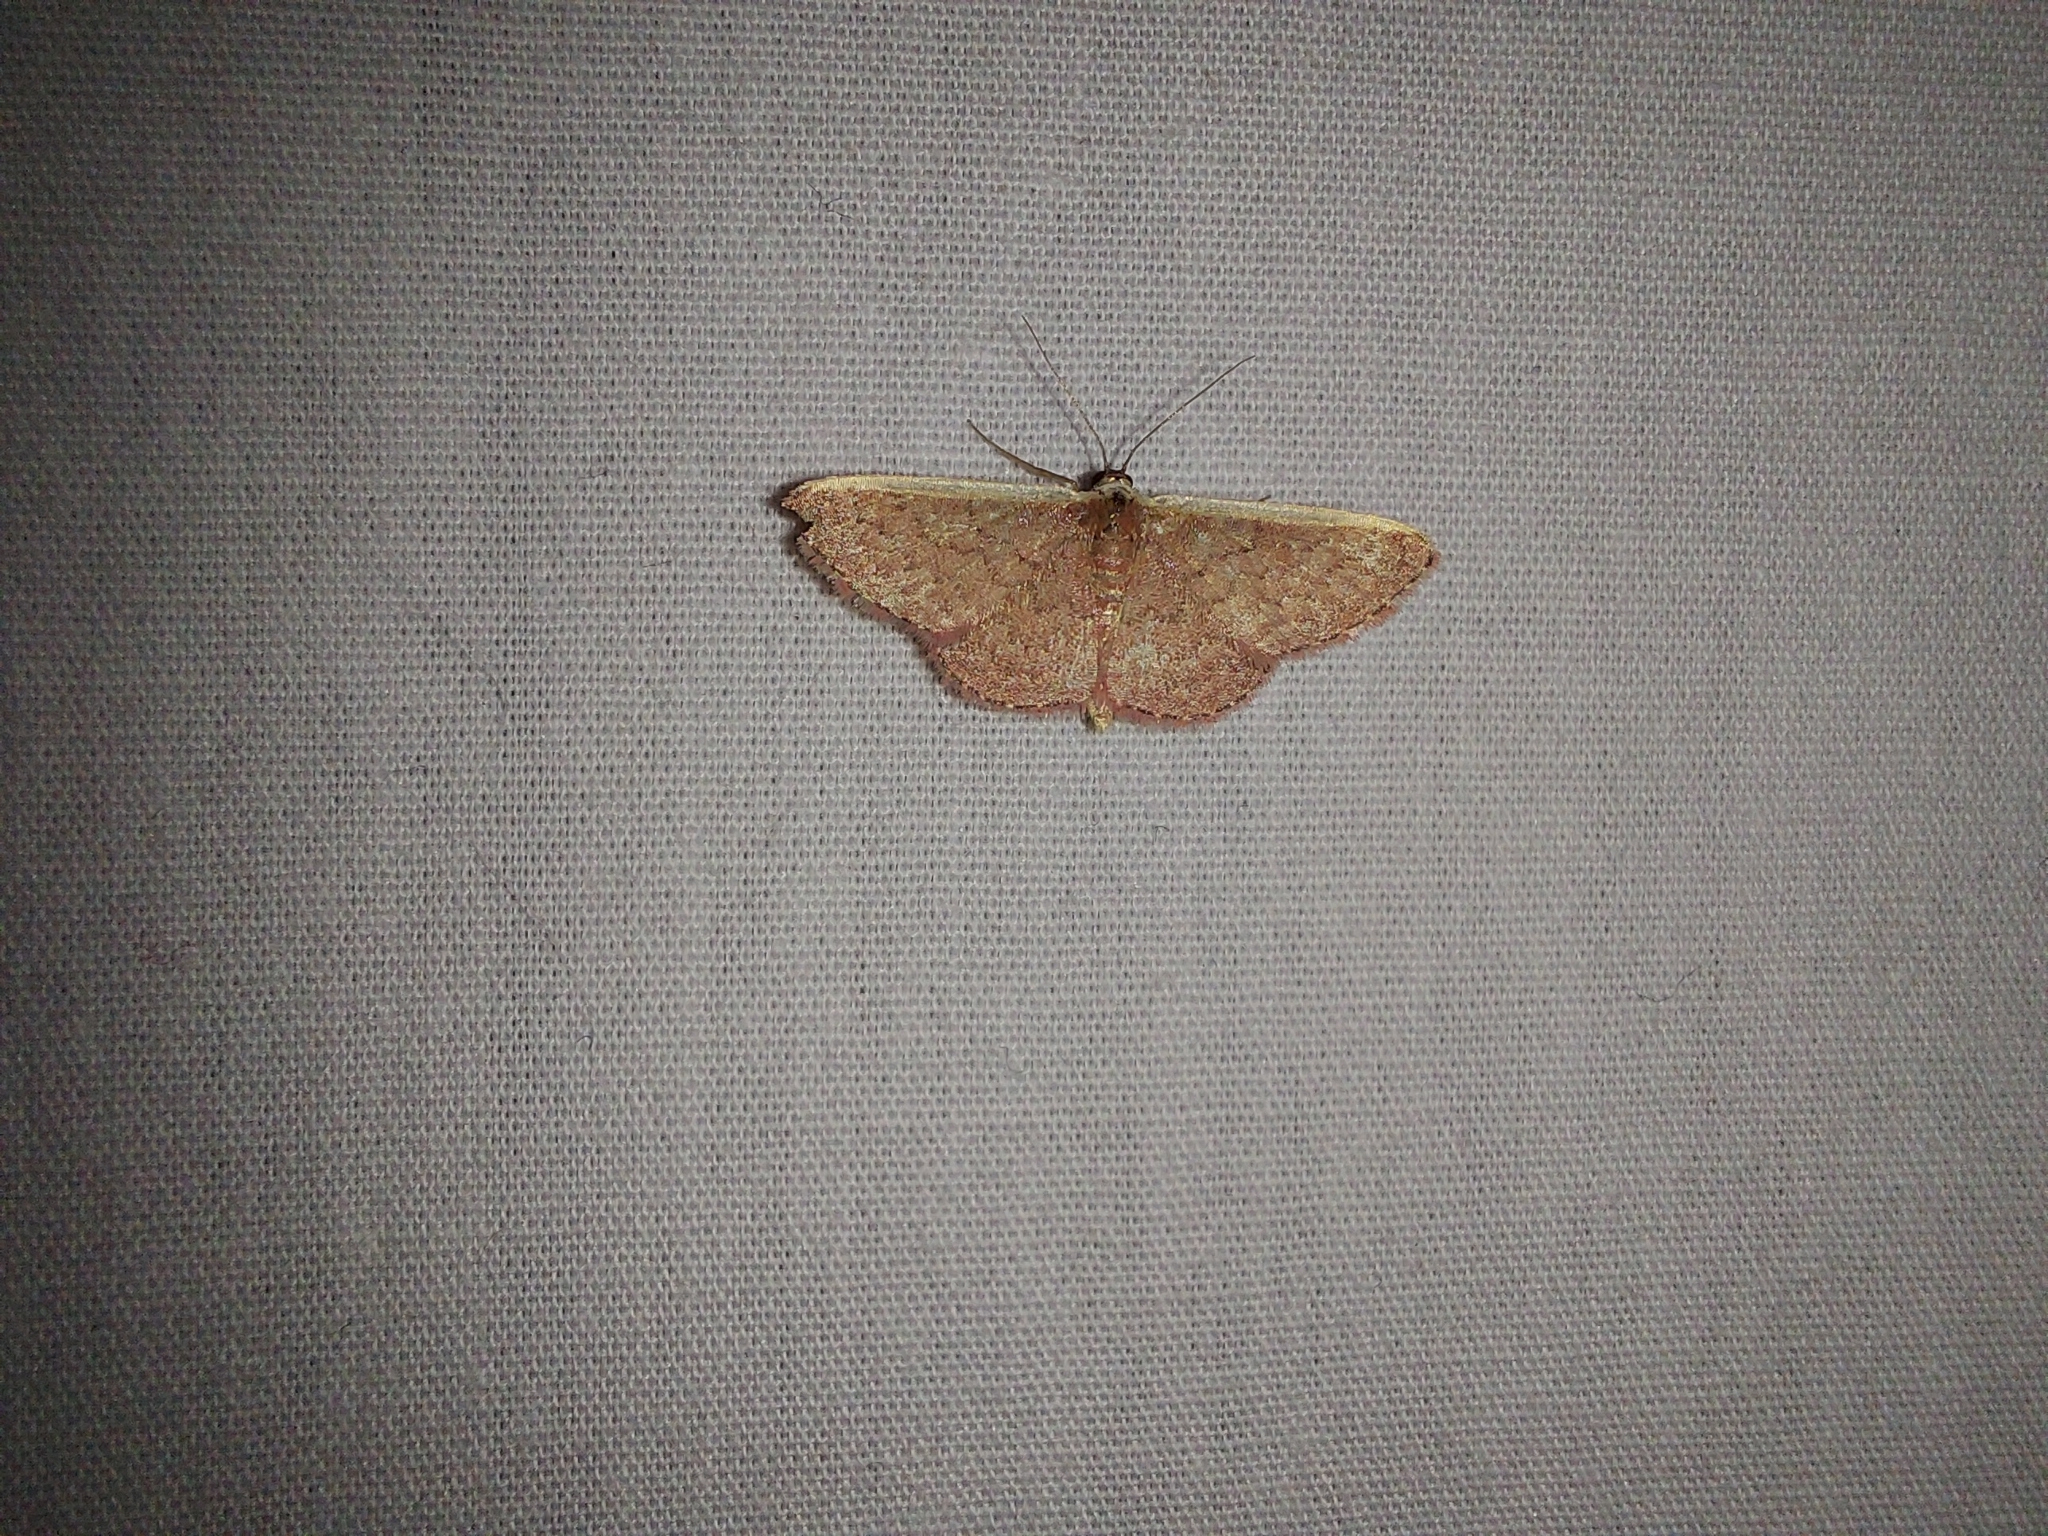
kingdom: Animalia
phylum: Arthropoda
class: Insecta
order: Lepidoptera
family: Geometridae
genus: Idaea
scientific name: Idaea inversata
